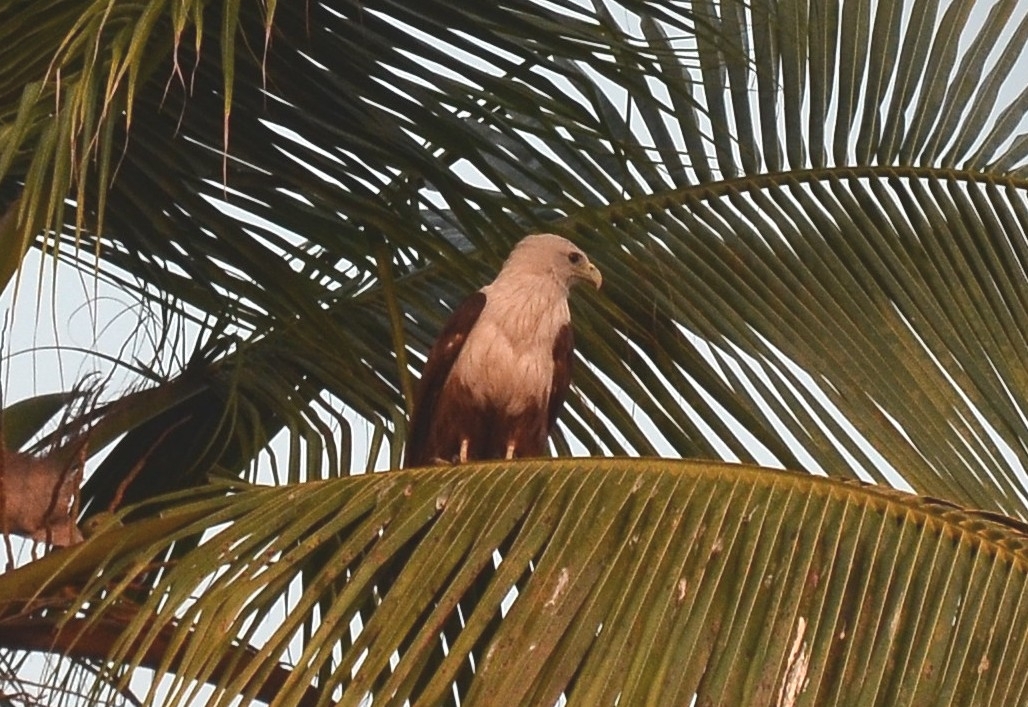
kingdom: Animalia
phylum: Chordata
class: Aves
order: Accipitriformes
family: Accipitridae
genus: Haliastur
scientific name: Haliastur indus
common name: Brahminy kite
